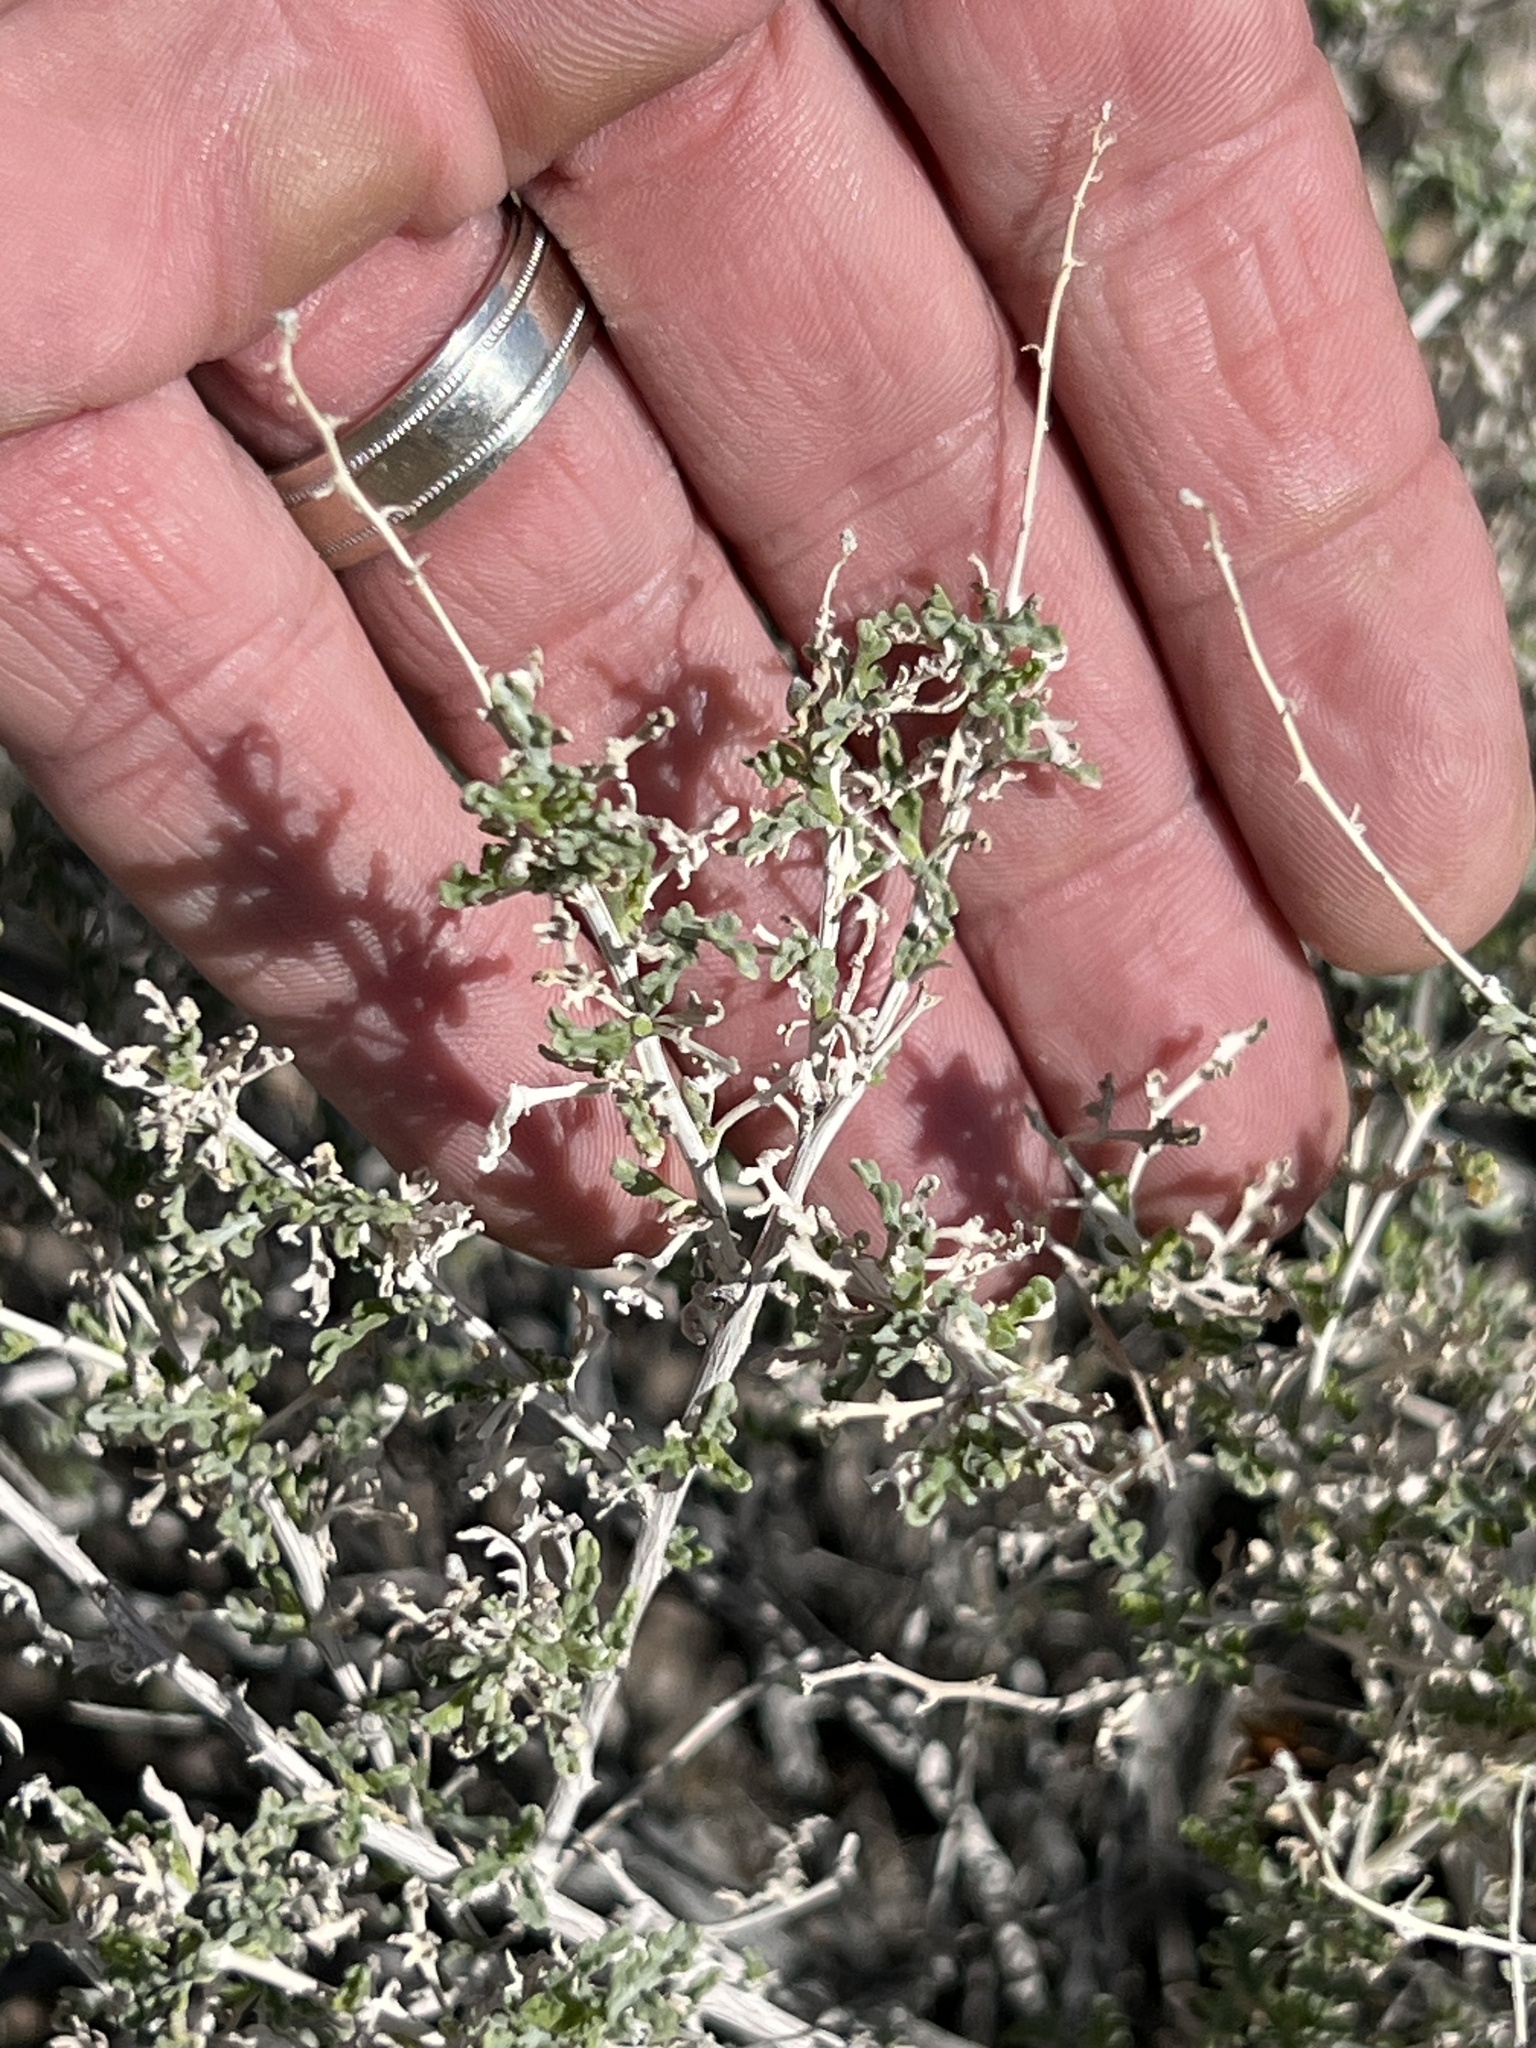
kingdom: Plantae
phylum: Tracheophyta
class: Magnoliopsida
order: Asterales
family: Asteraceae
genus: Ambrosia
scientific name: Ambrosia dumosa
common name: Bur-sage
